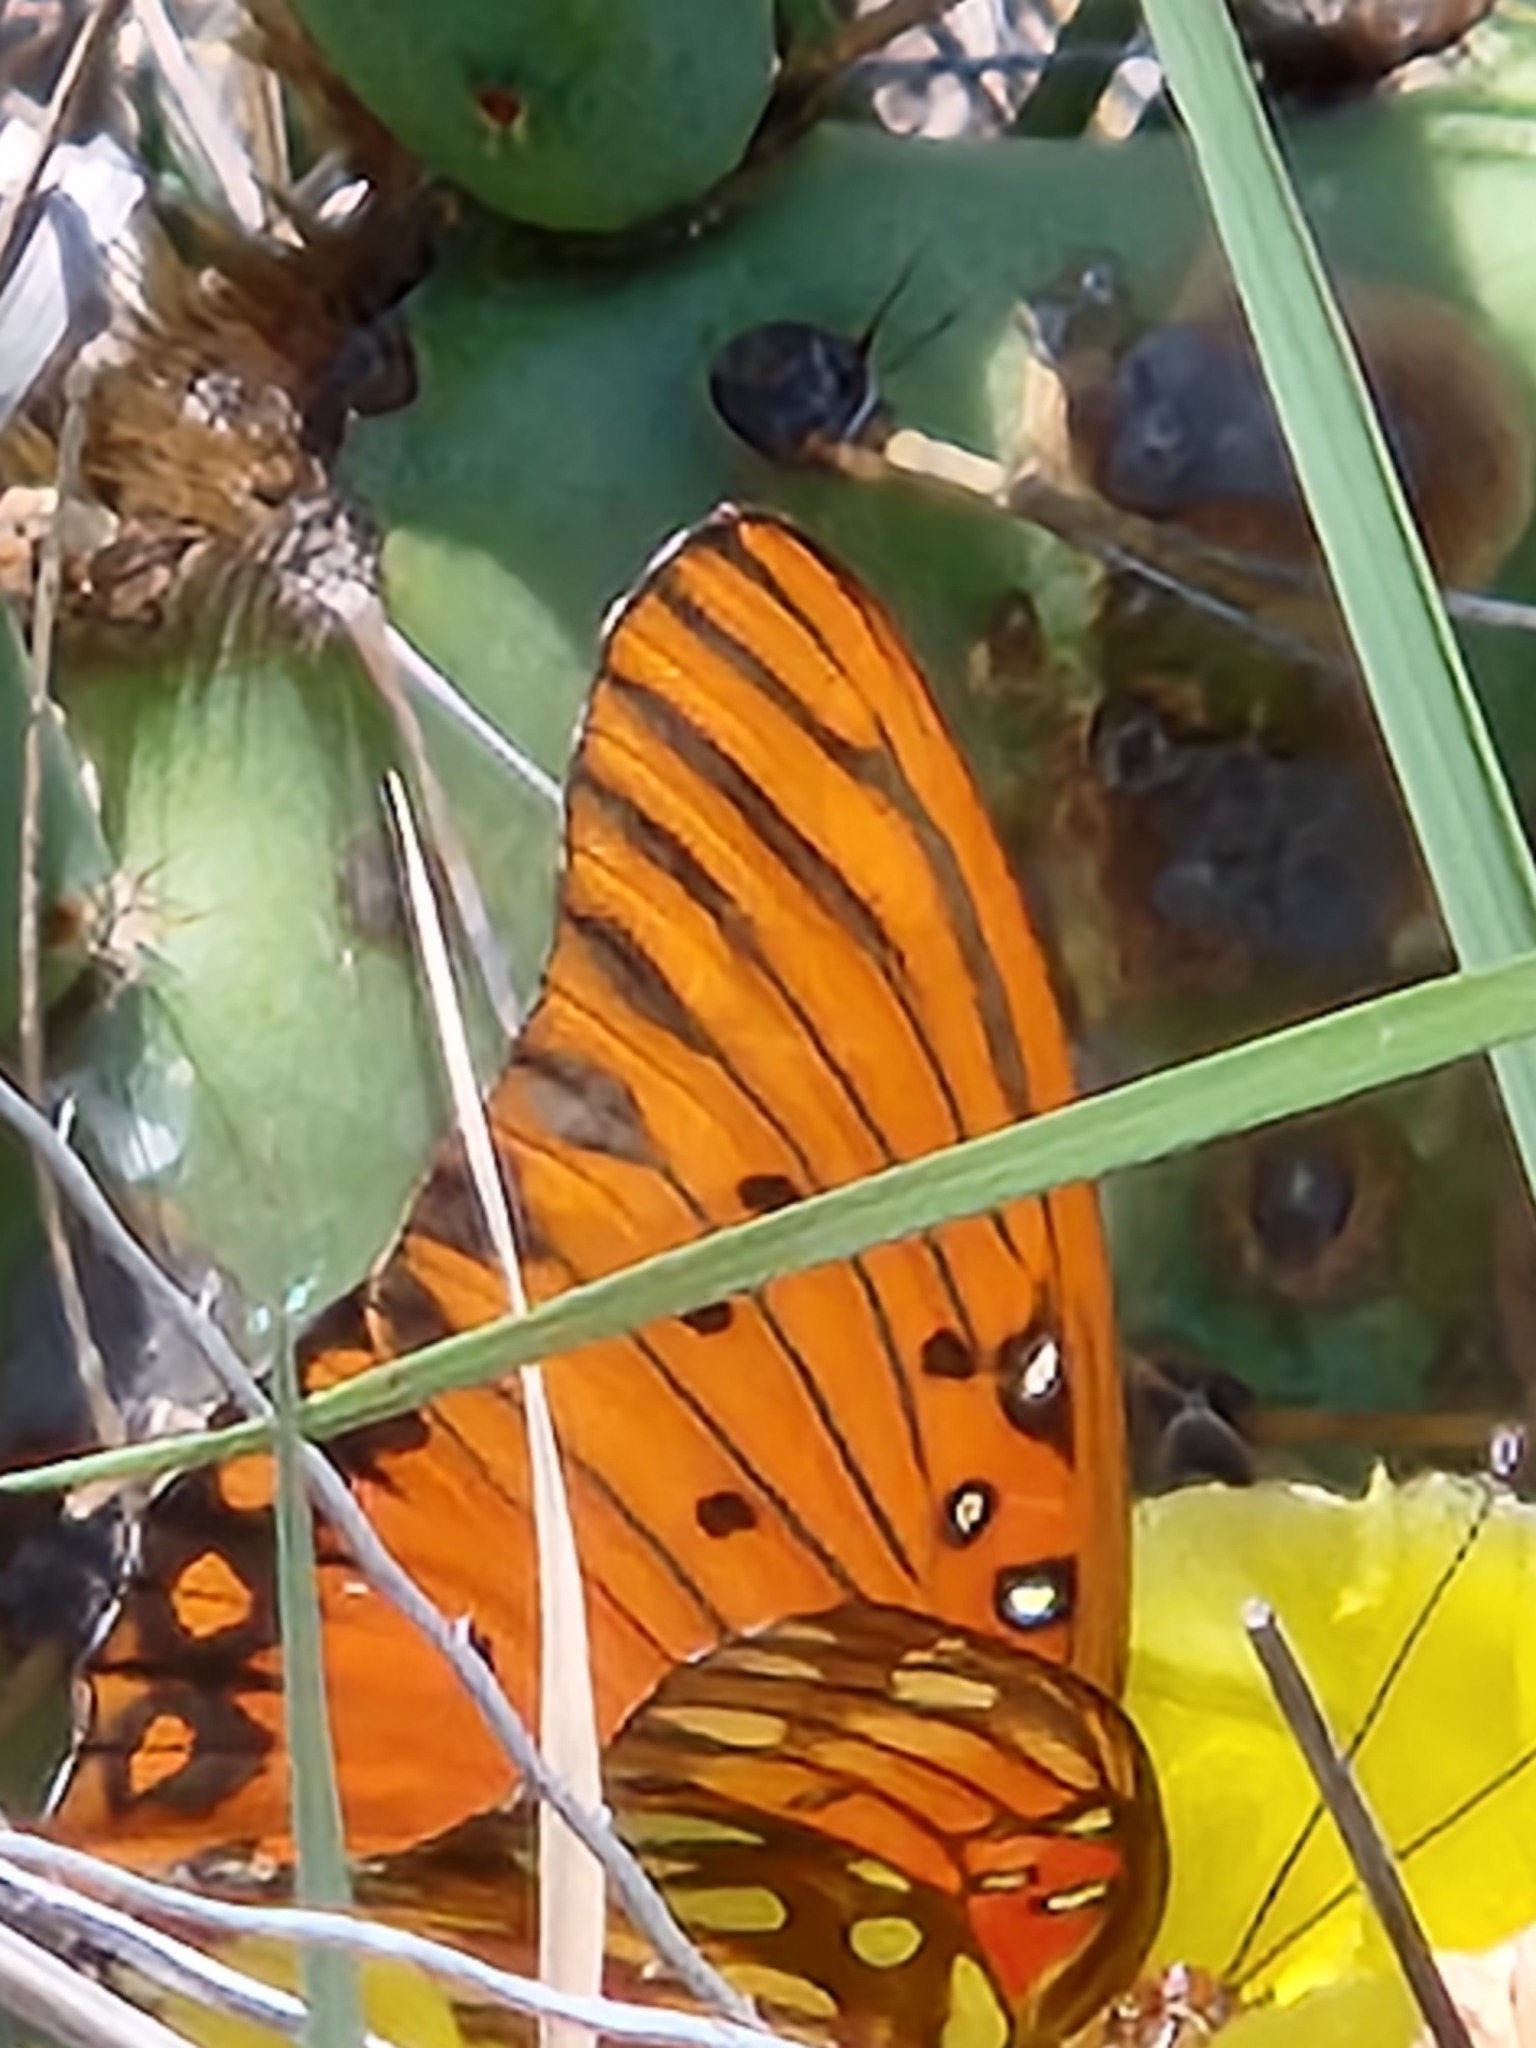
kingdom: Animalia
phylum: Arthropoda
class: Insecta
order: Lepidoptera
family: Nymphalidae
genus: Dione
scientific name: Dione vanillae
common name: Gulf fritillary
